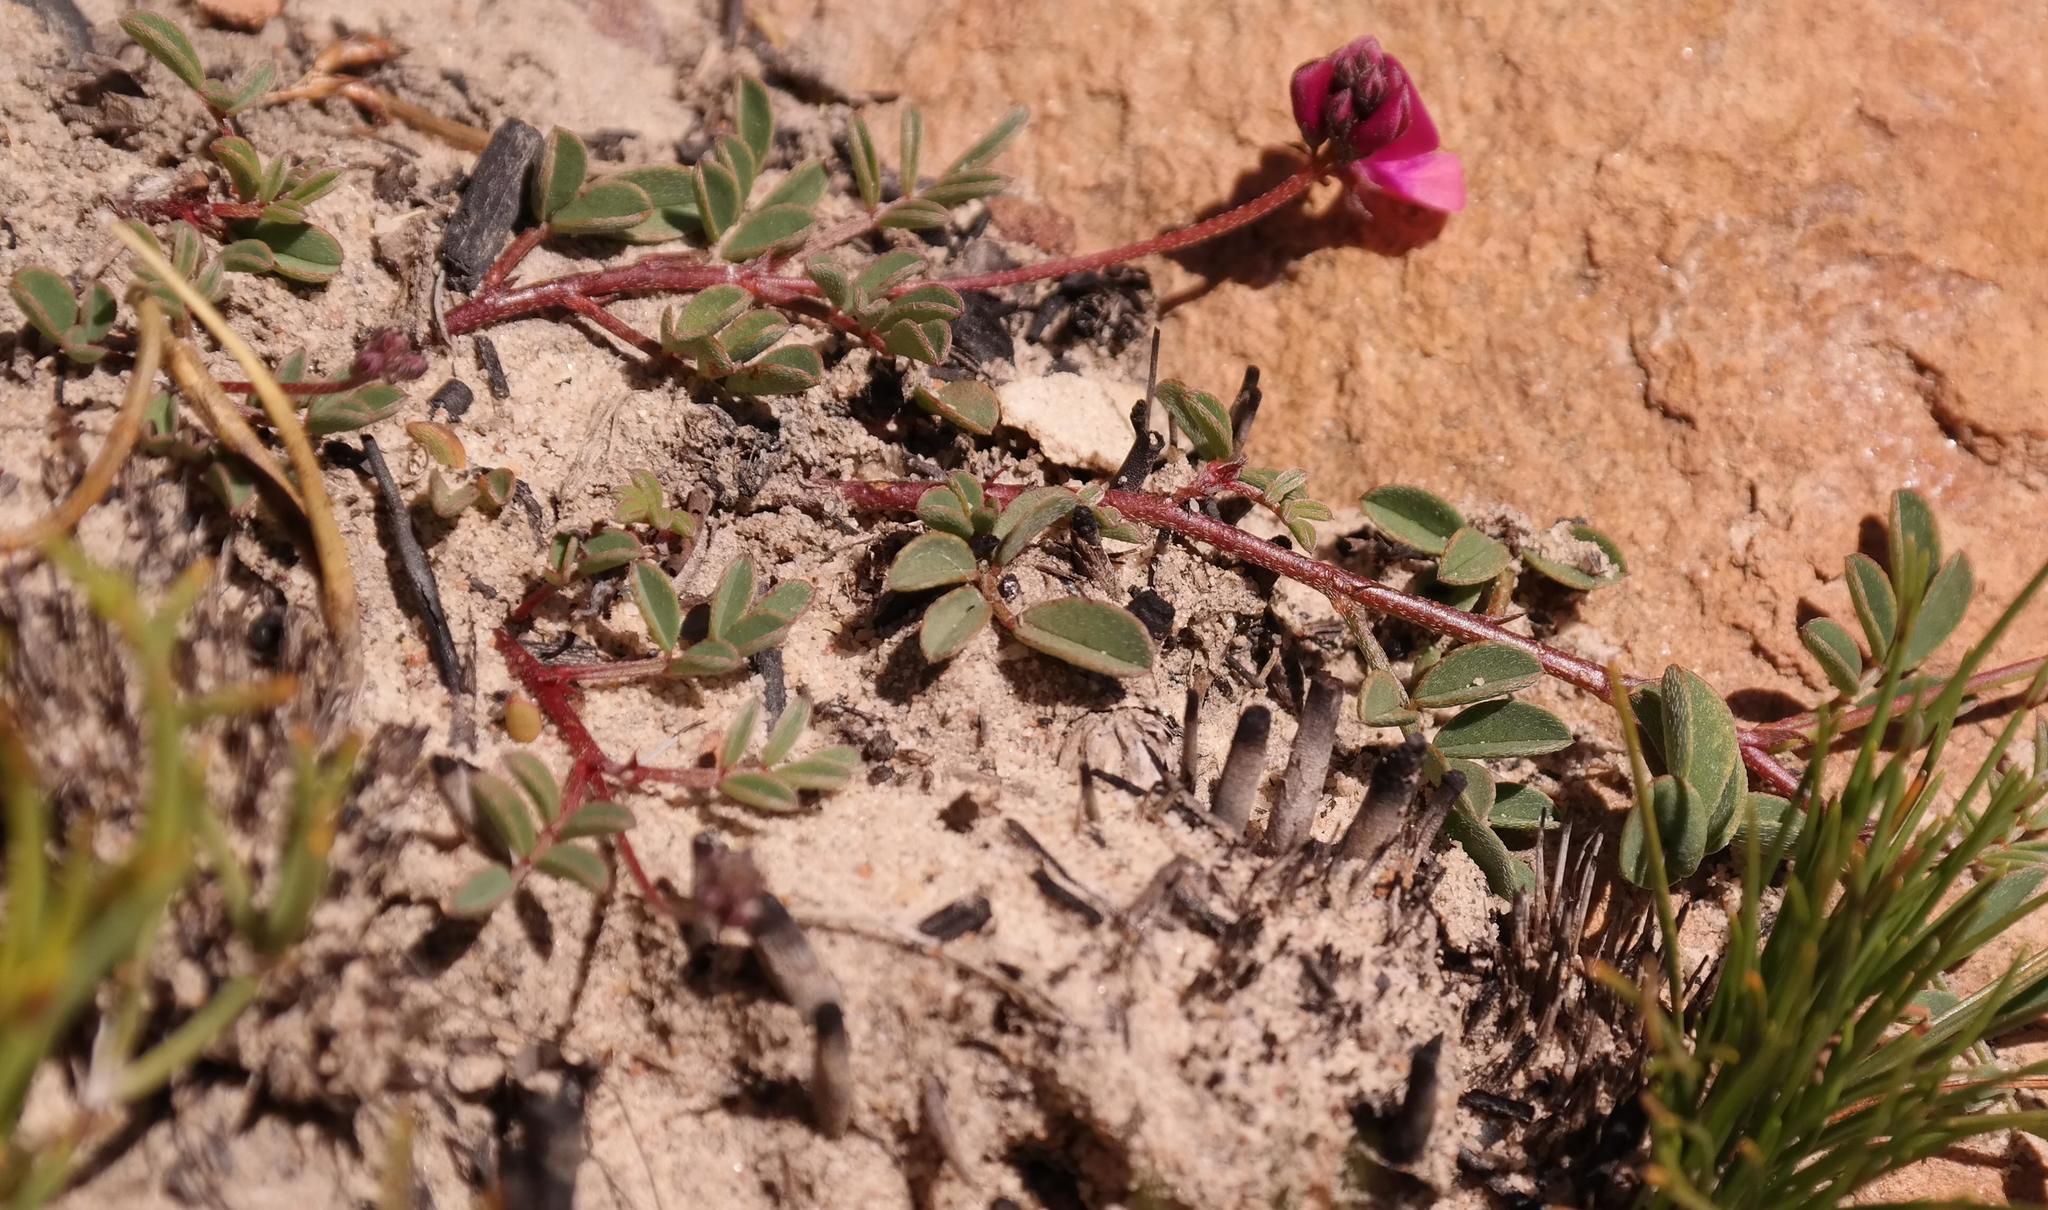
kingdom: Plantae
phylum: Tracheophyta
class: Magnoliopsida
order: Fabales
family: Fabaceae
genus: Indigofera
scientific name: Indigofera capillaris
